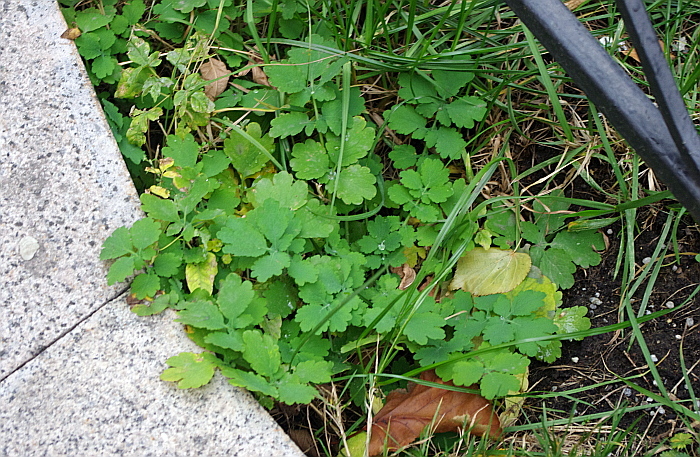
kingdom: Plantae
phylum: Tracheophyta
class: Magnoliopsida
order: Ranunculales
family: Papaveraceae
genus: Chelidonium
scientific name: Chelidonium majus
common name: Greater celandine
